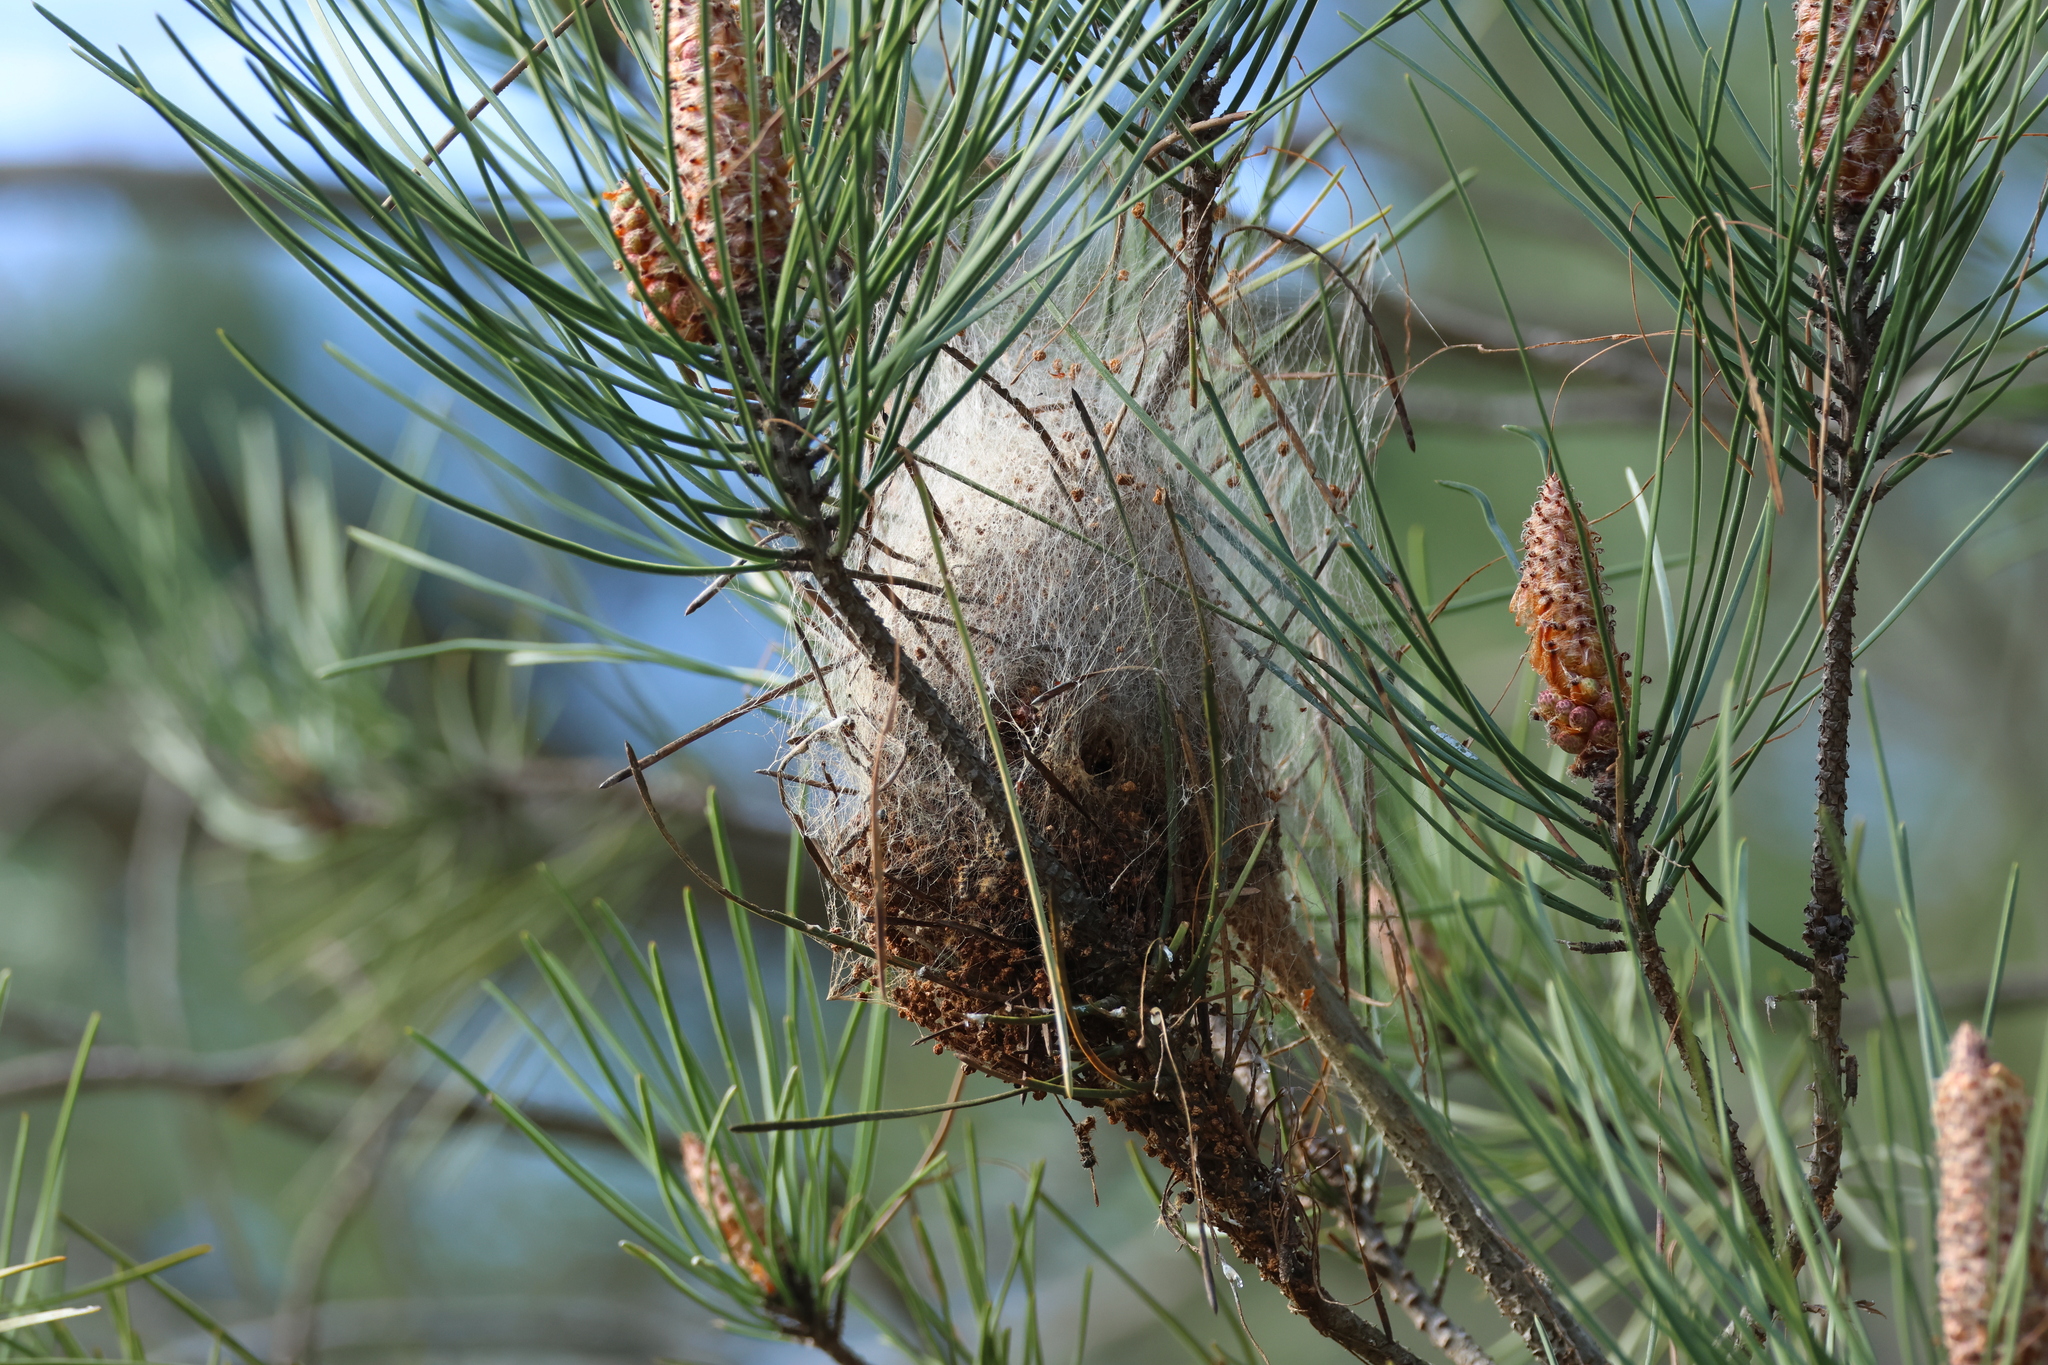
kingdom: Animalia
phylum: Arthropoda
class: Insecta
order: Lepidoptera
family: Notodontidae
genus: Thaumetopoea
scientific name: Thaumetopoea pityocampa
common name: Pine processionary
